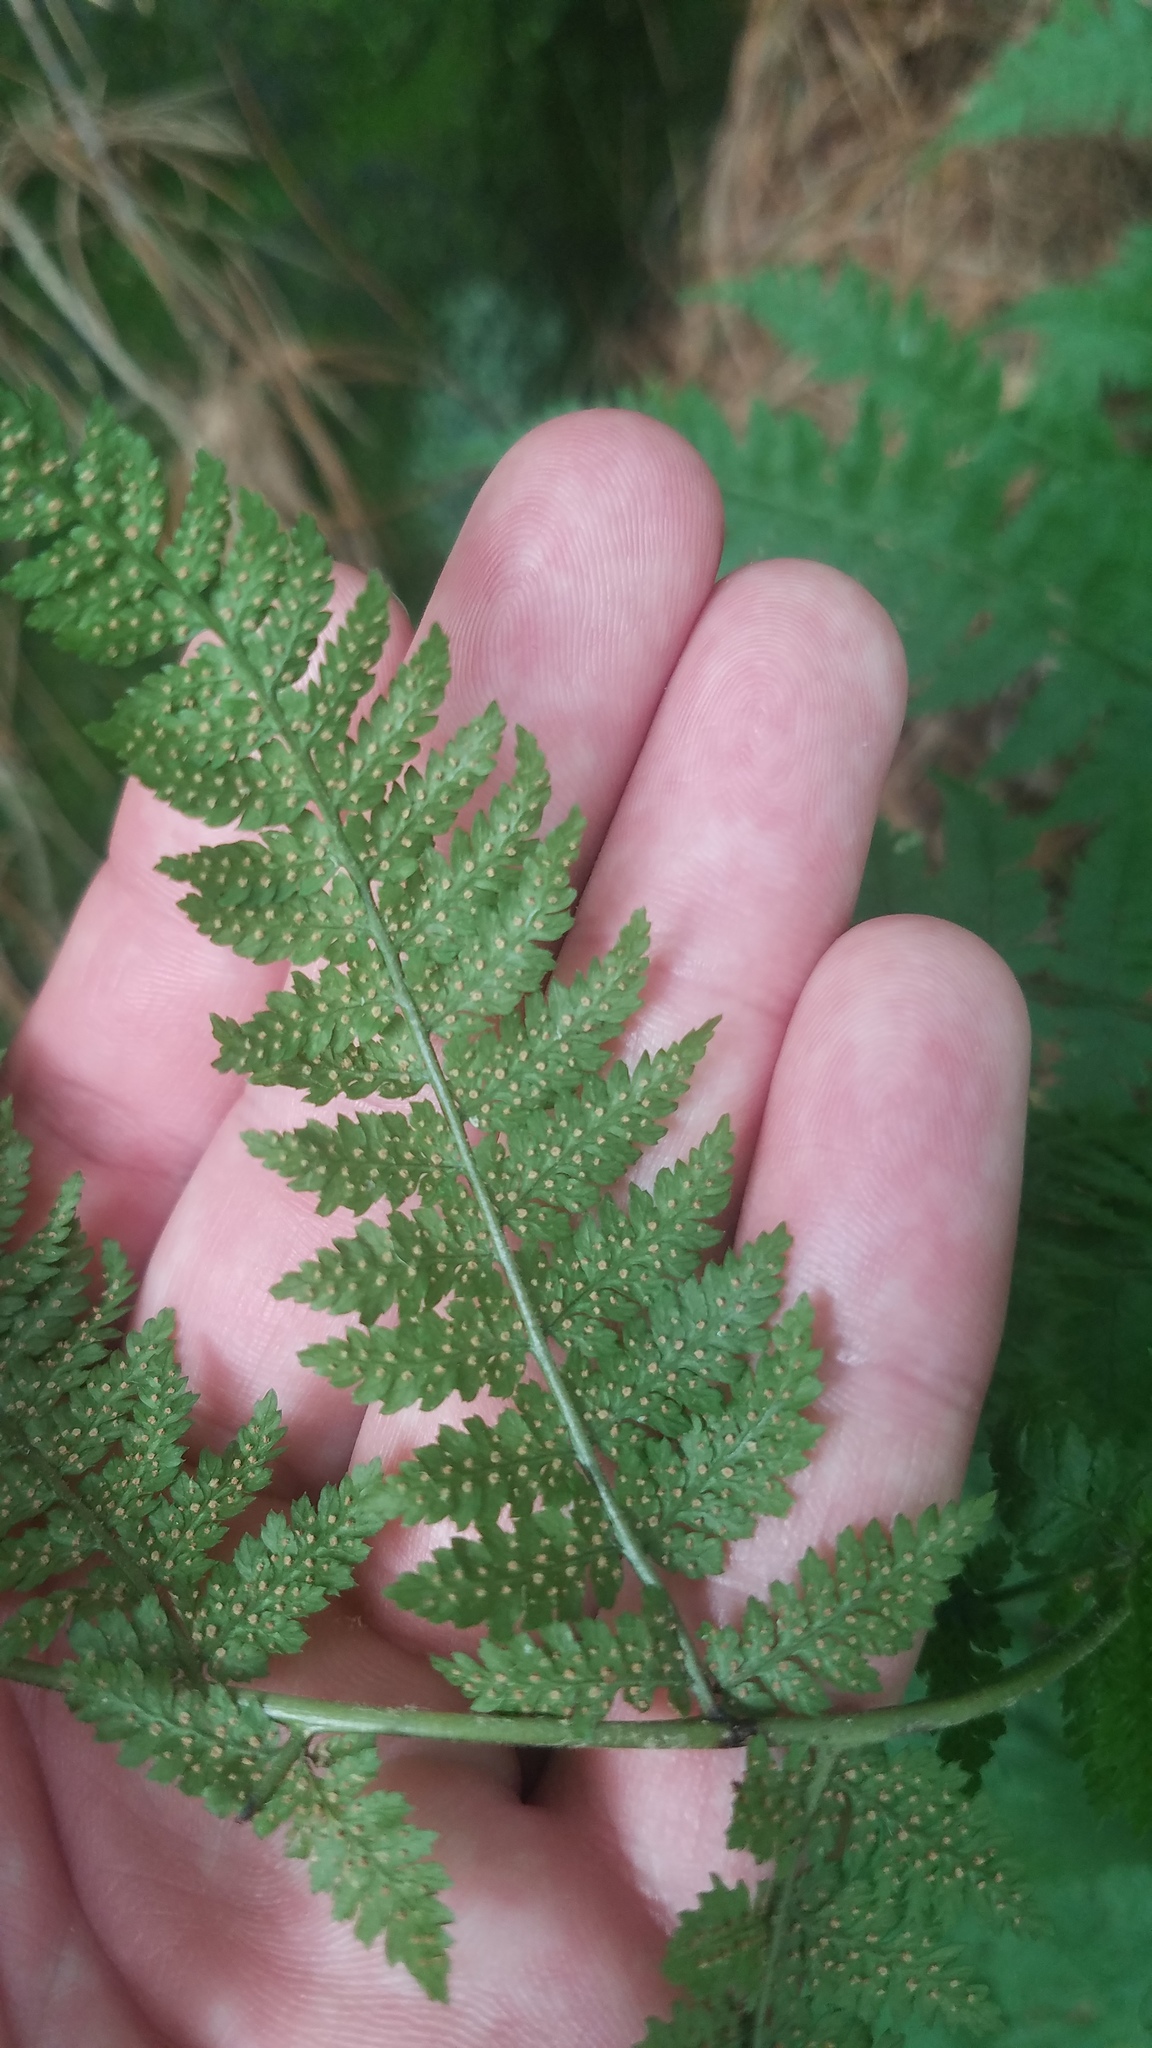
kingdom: Plantae
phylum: Tracheophyta
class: Polypodiopsida
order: Polypodiales
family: Dryopteridaceae
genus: Dryopteris
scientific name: Dryopteris intermedia
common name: Evergreen wood fern
